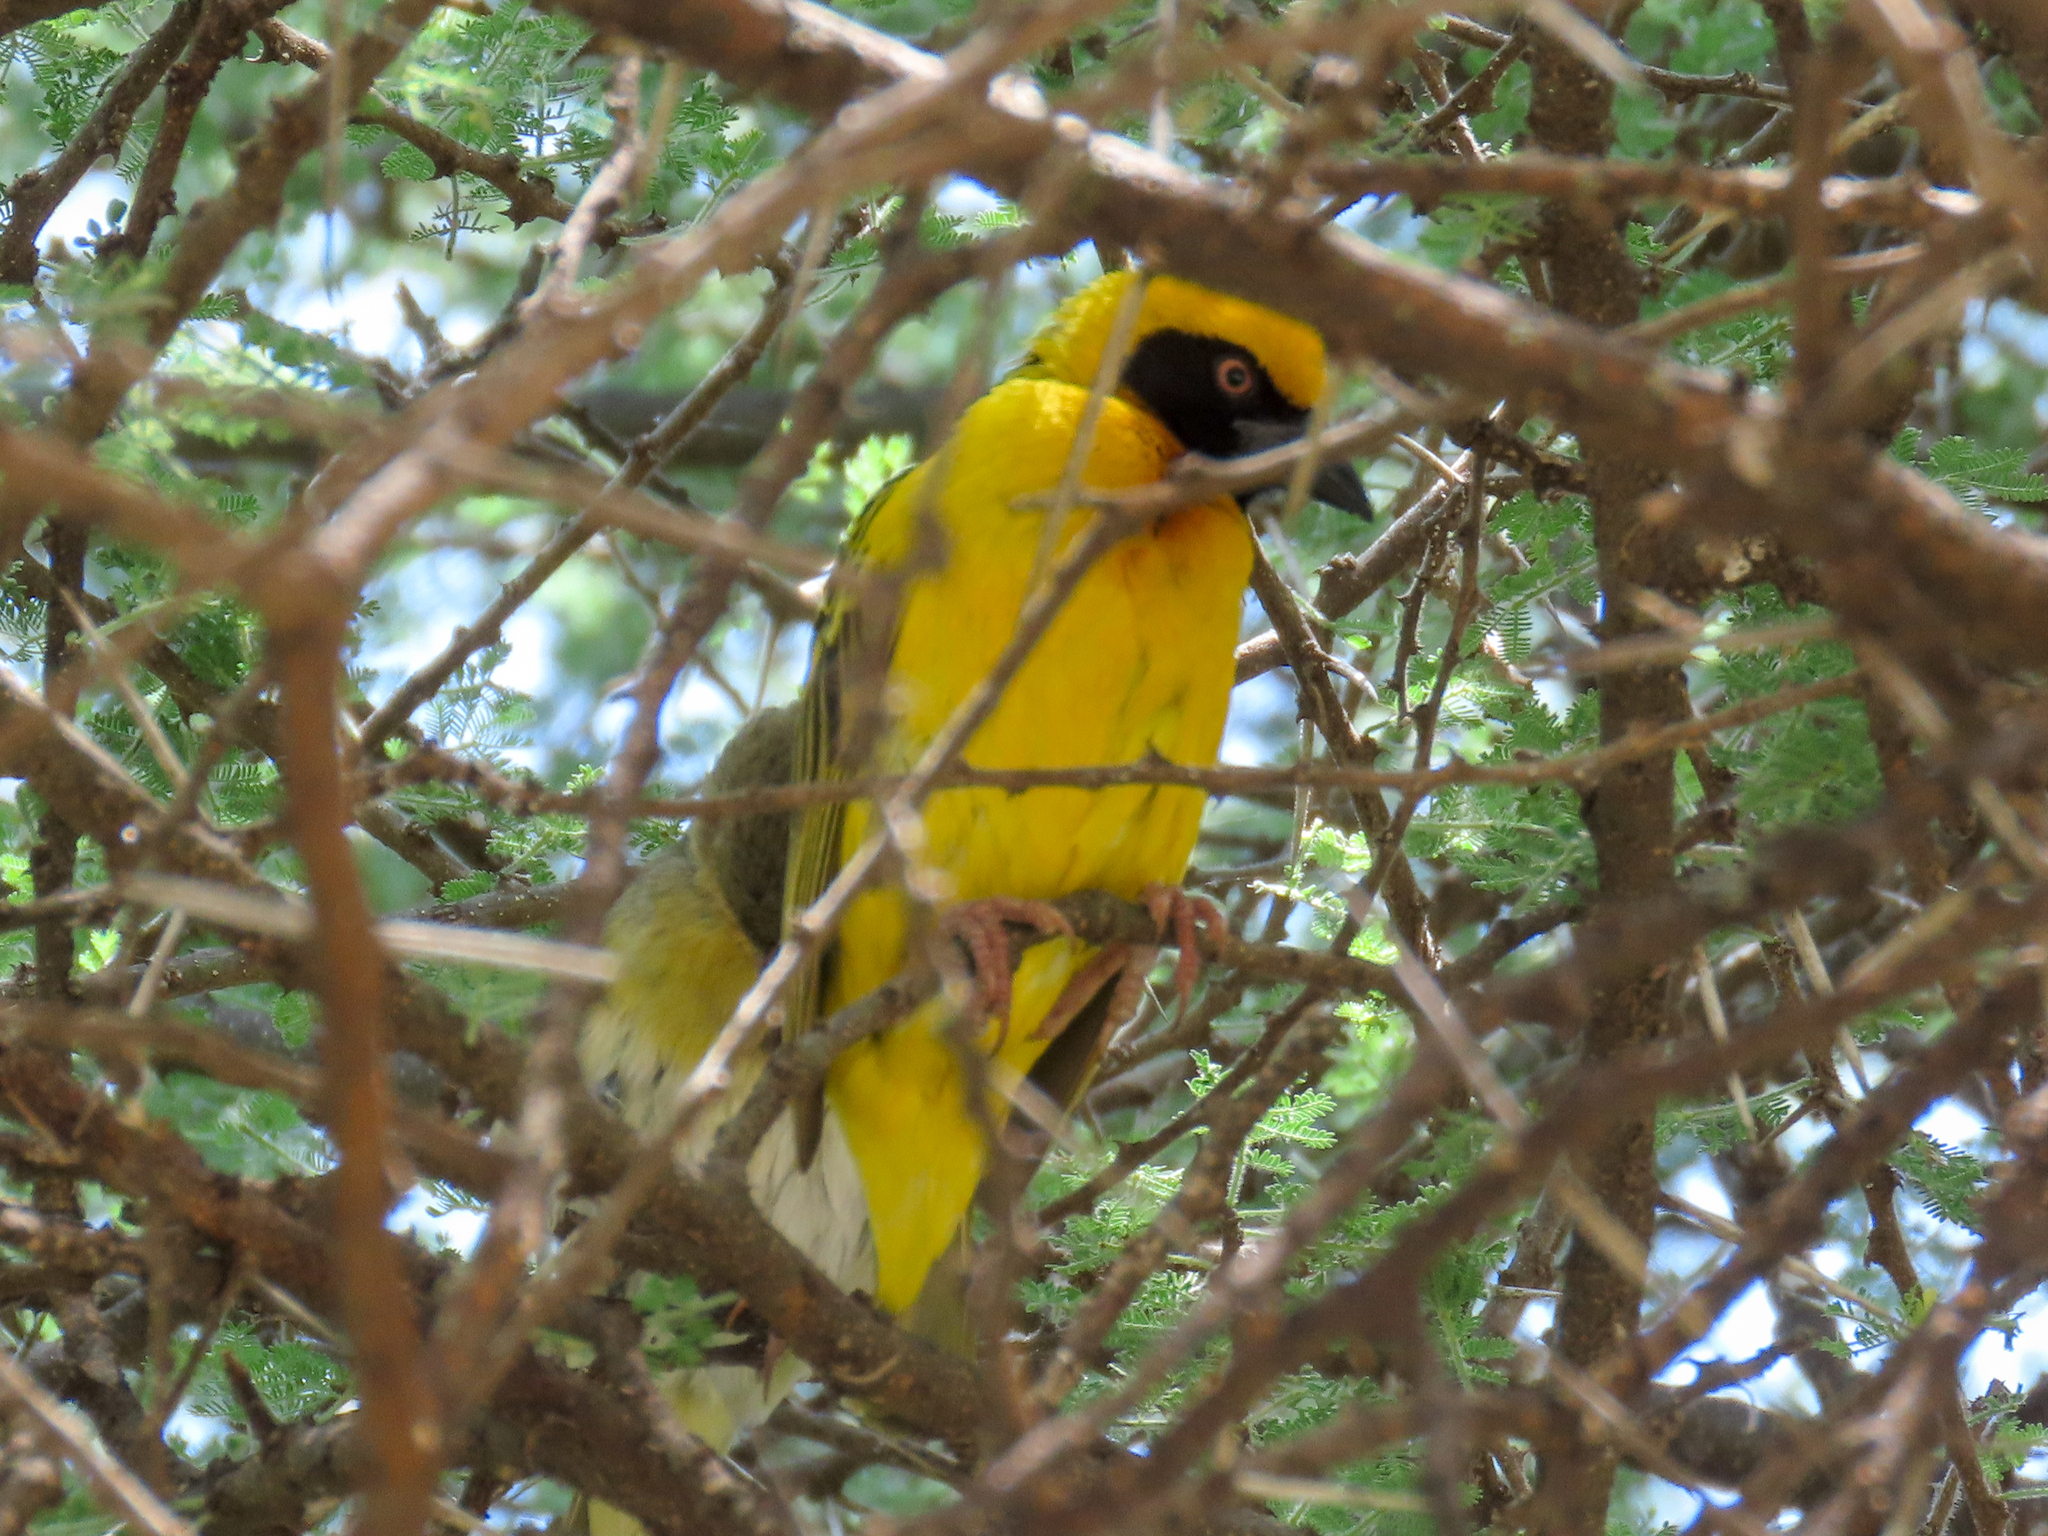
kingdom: Animalia
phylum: Chordata
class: Aves
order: Passeriformes
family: Ploceidae
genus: Ploceus
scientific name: Ploceus spekei
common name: Speke's weaver
